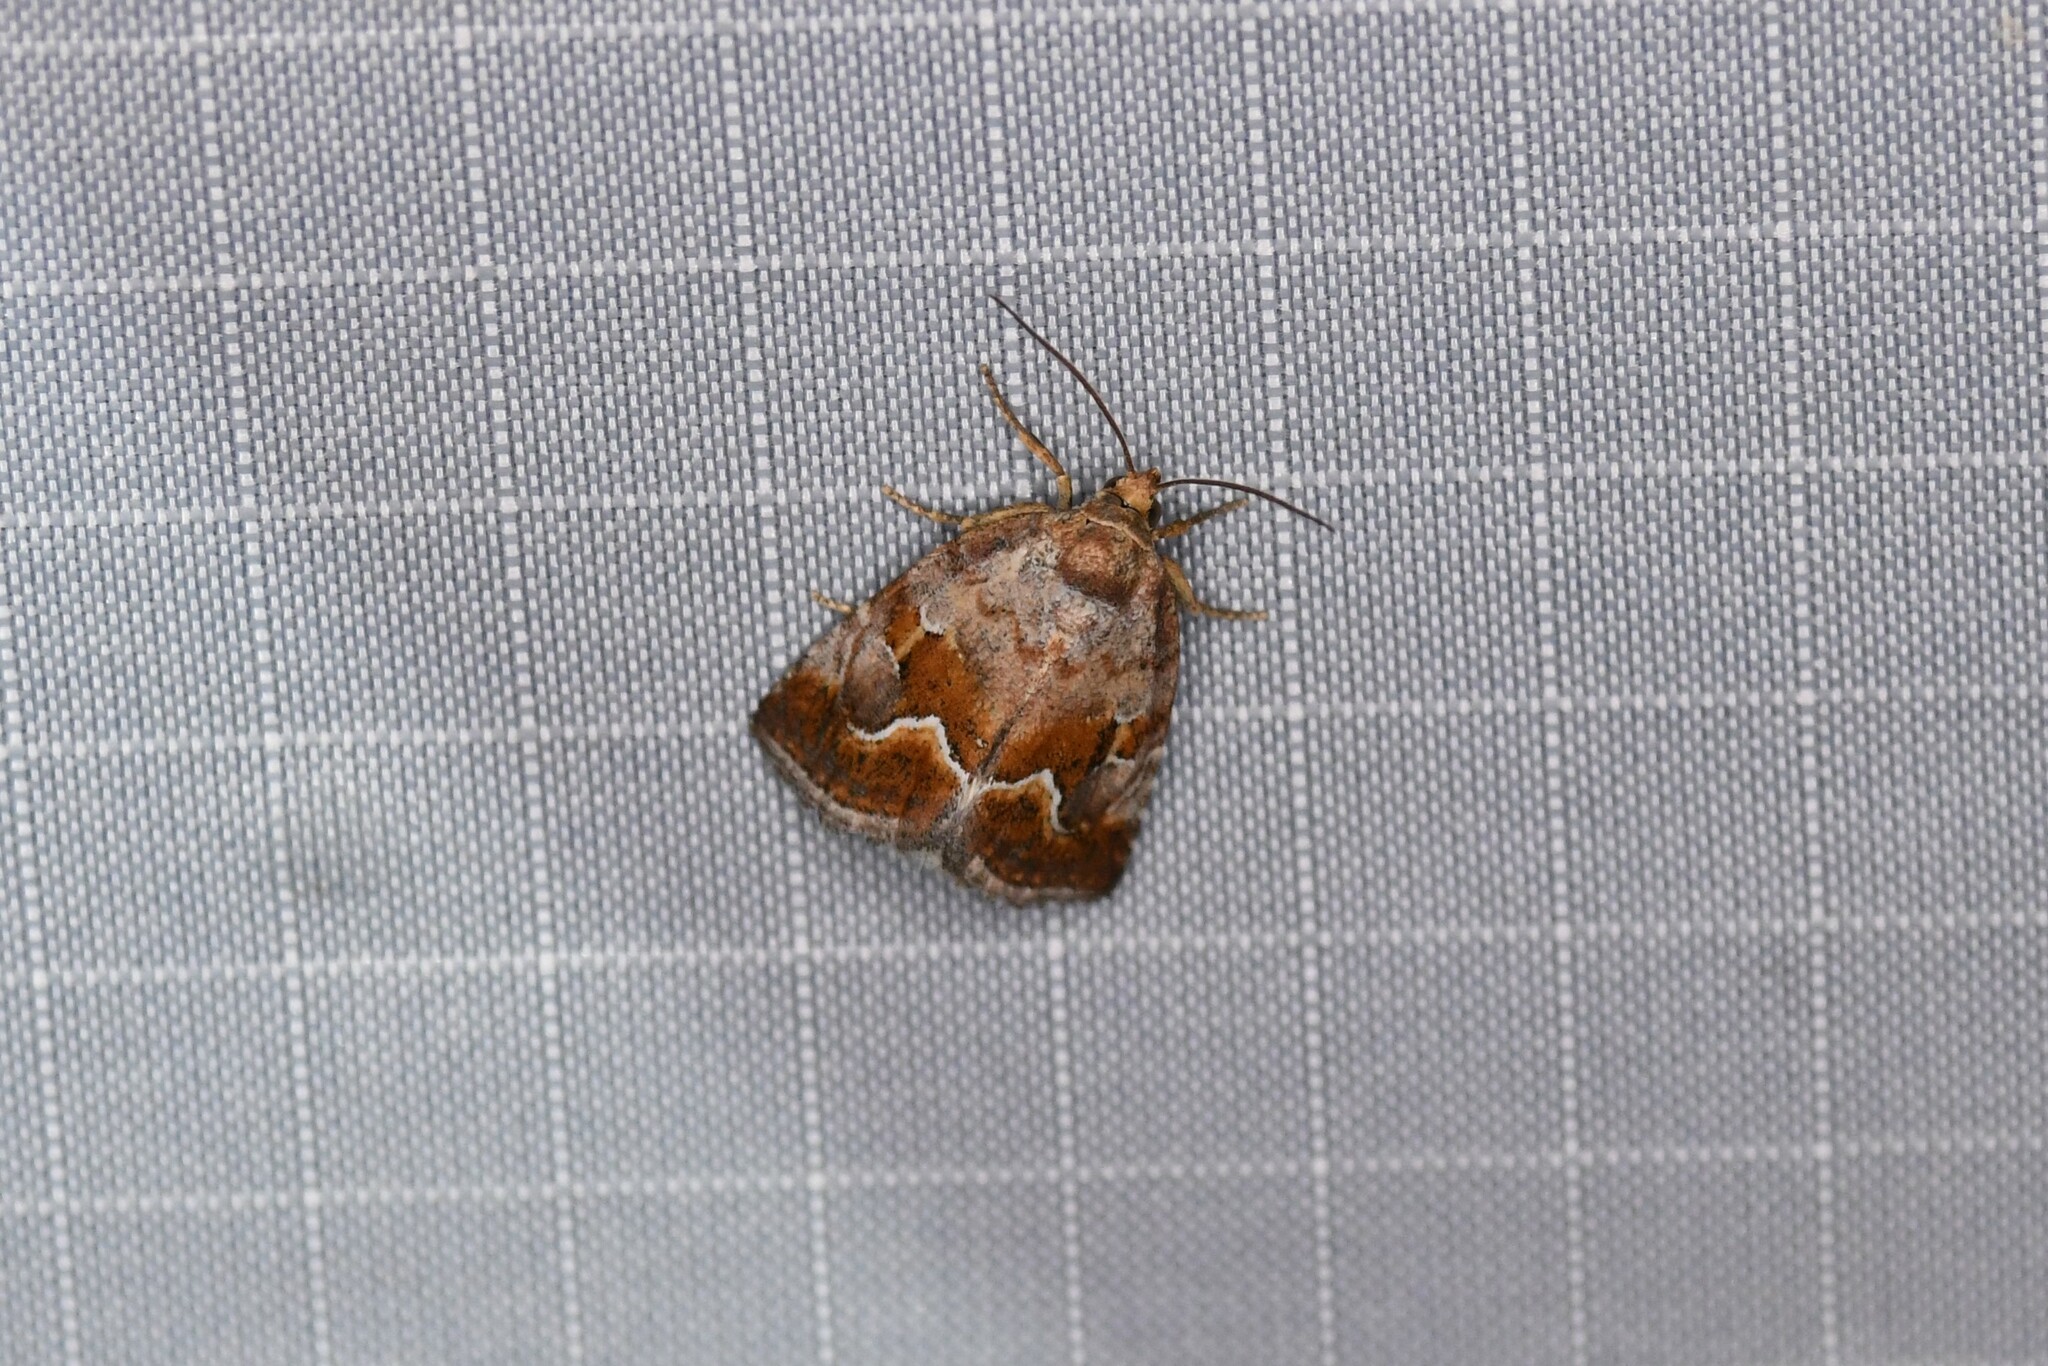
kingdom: Animalia
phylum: Arthropoda
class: Insecta
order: Lepidoptera
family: Noctuidae
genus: Deltote
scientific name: Deltote bellicula
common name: Bog glyph
